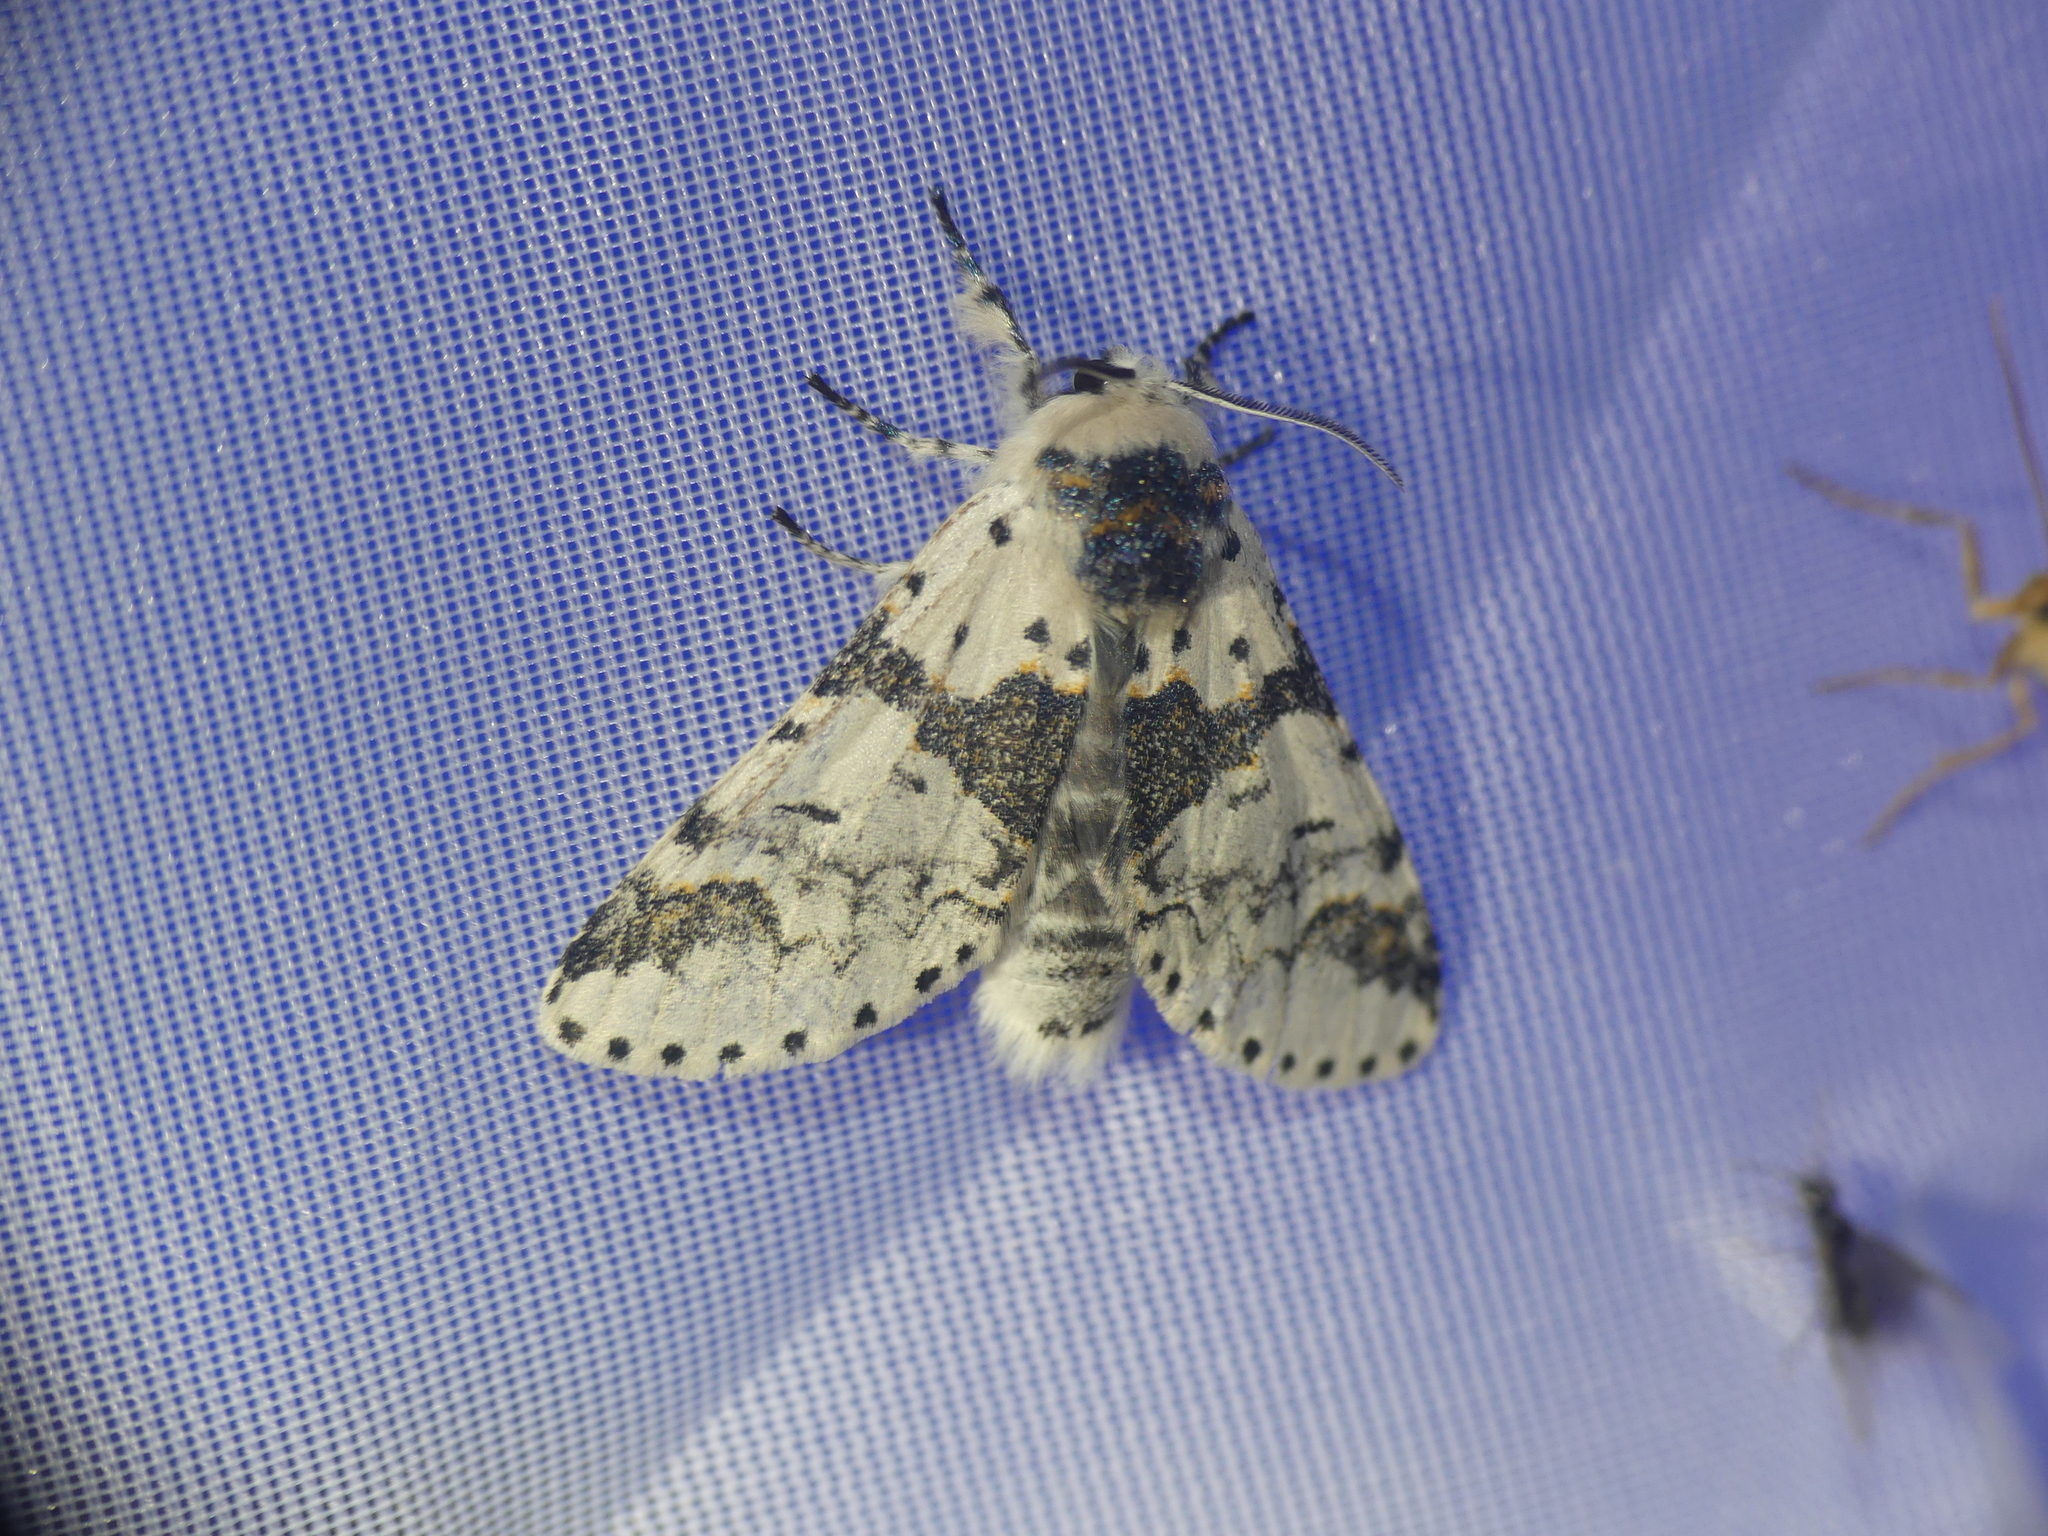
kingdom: Animalia
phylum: Arthropoda
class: Insecta
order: Lepidoptera
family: Notodontidae
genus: Furcula
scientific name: Furcula bicuspis
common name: Alder kitten
